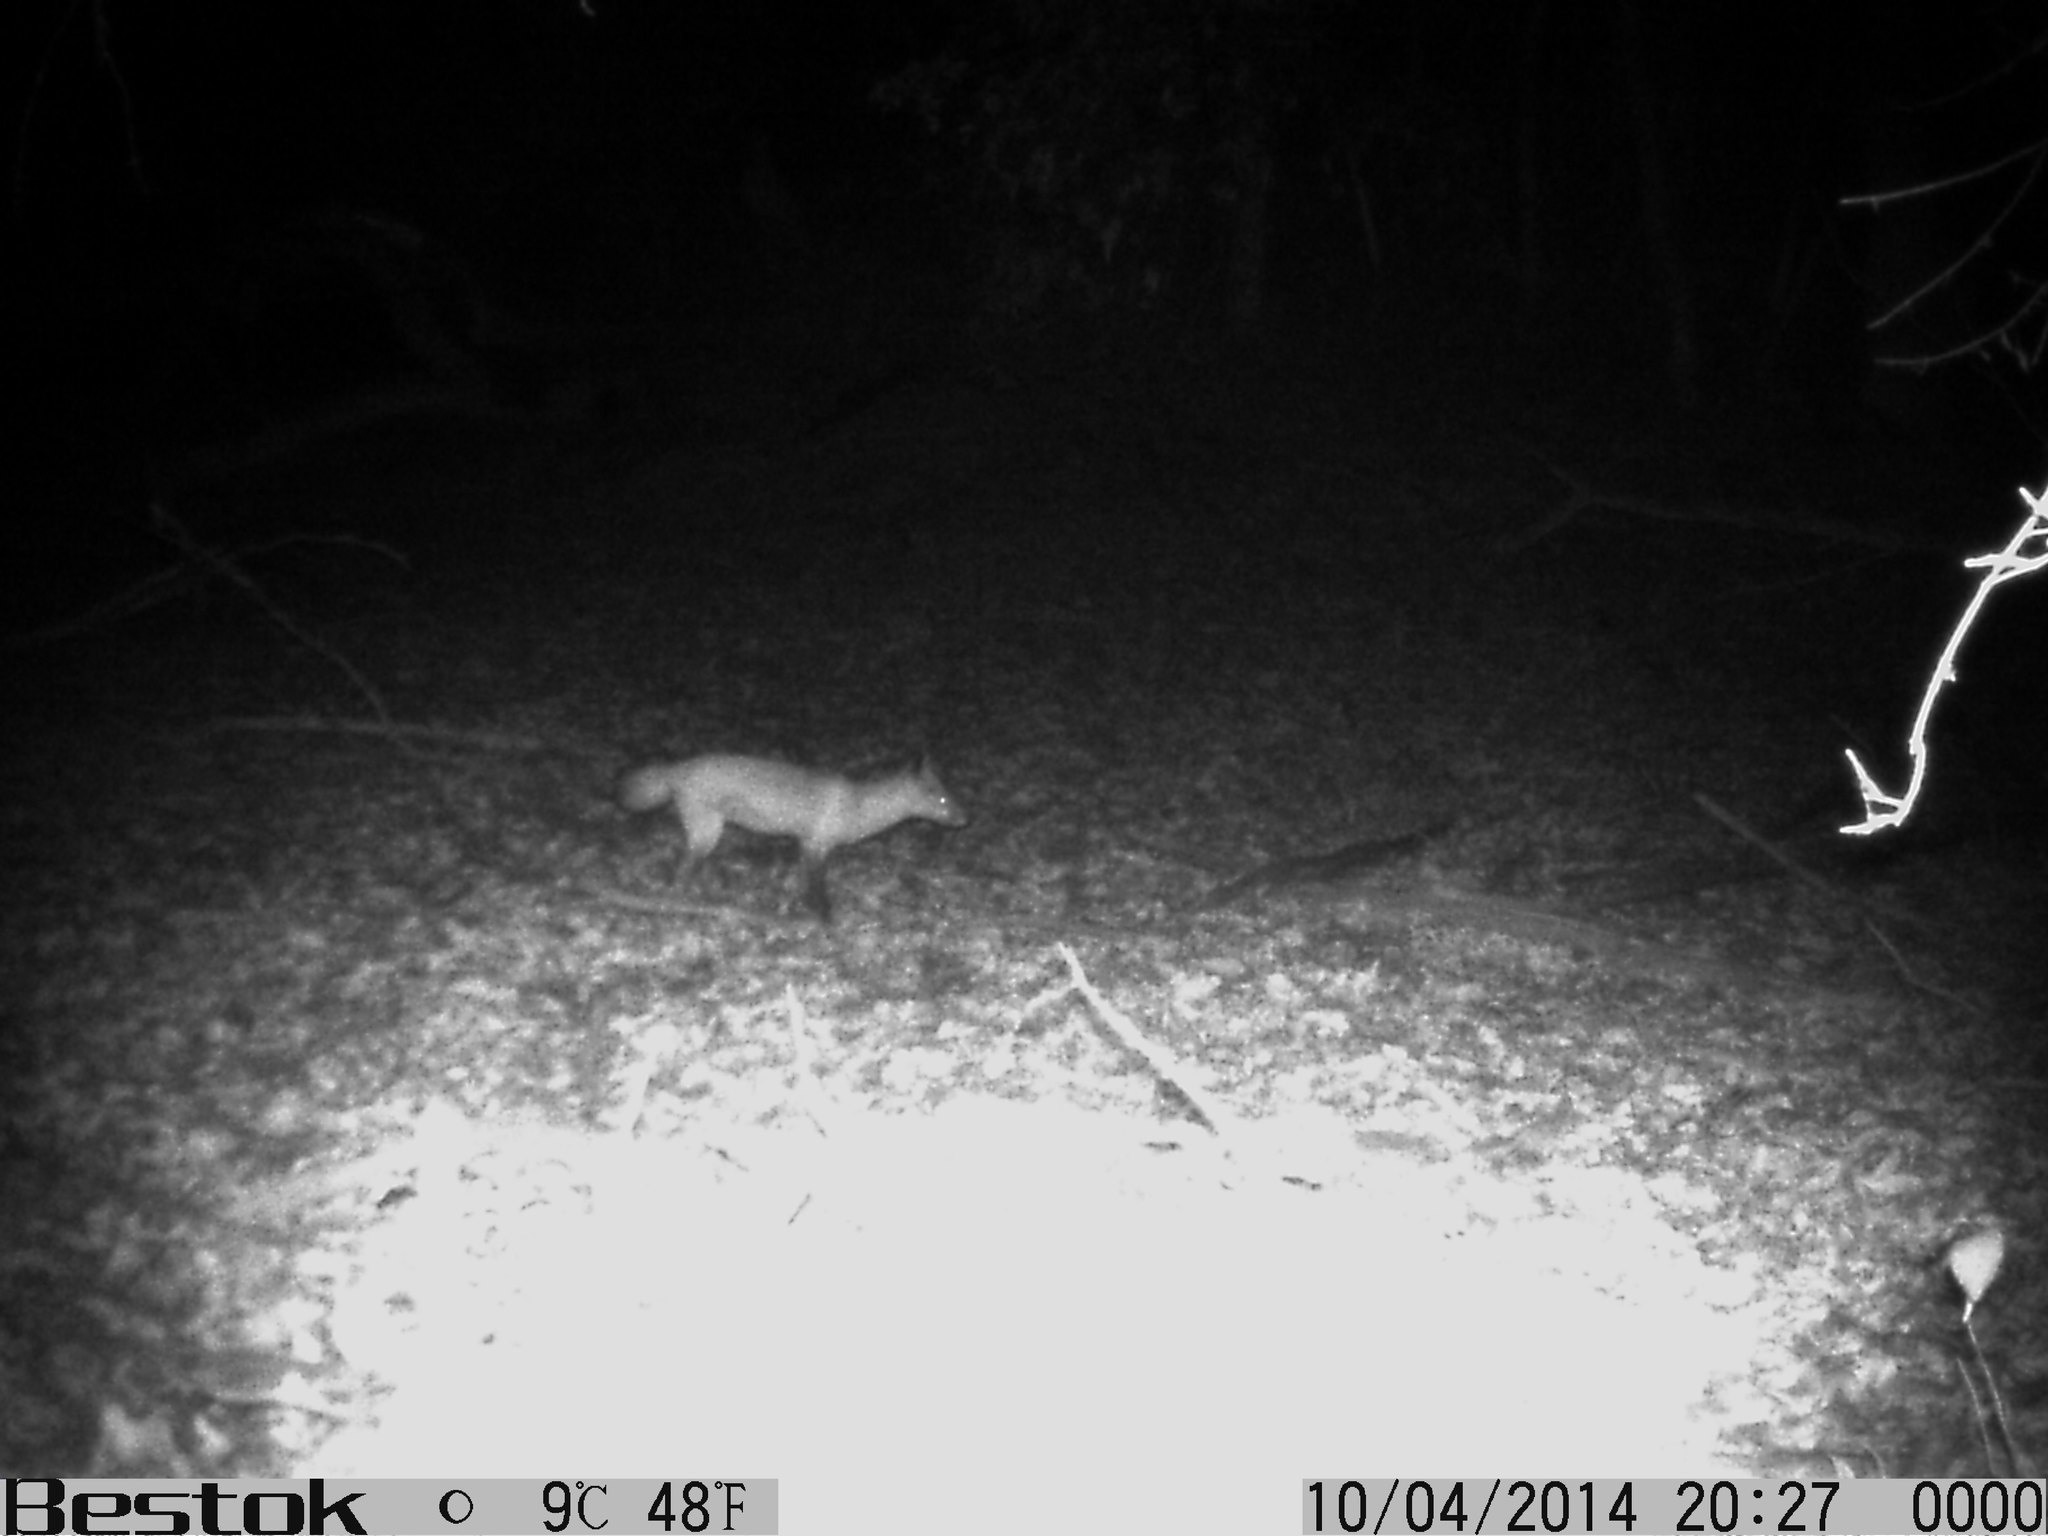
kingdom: Animalia
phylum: Chordata
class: Mammalia
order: Carnivora
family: Canidae
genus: Vulpes
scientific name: Vulpes vulpes
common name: Red fox
